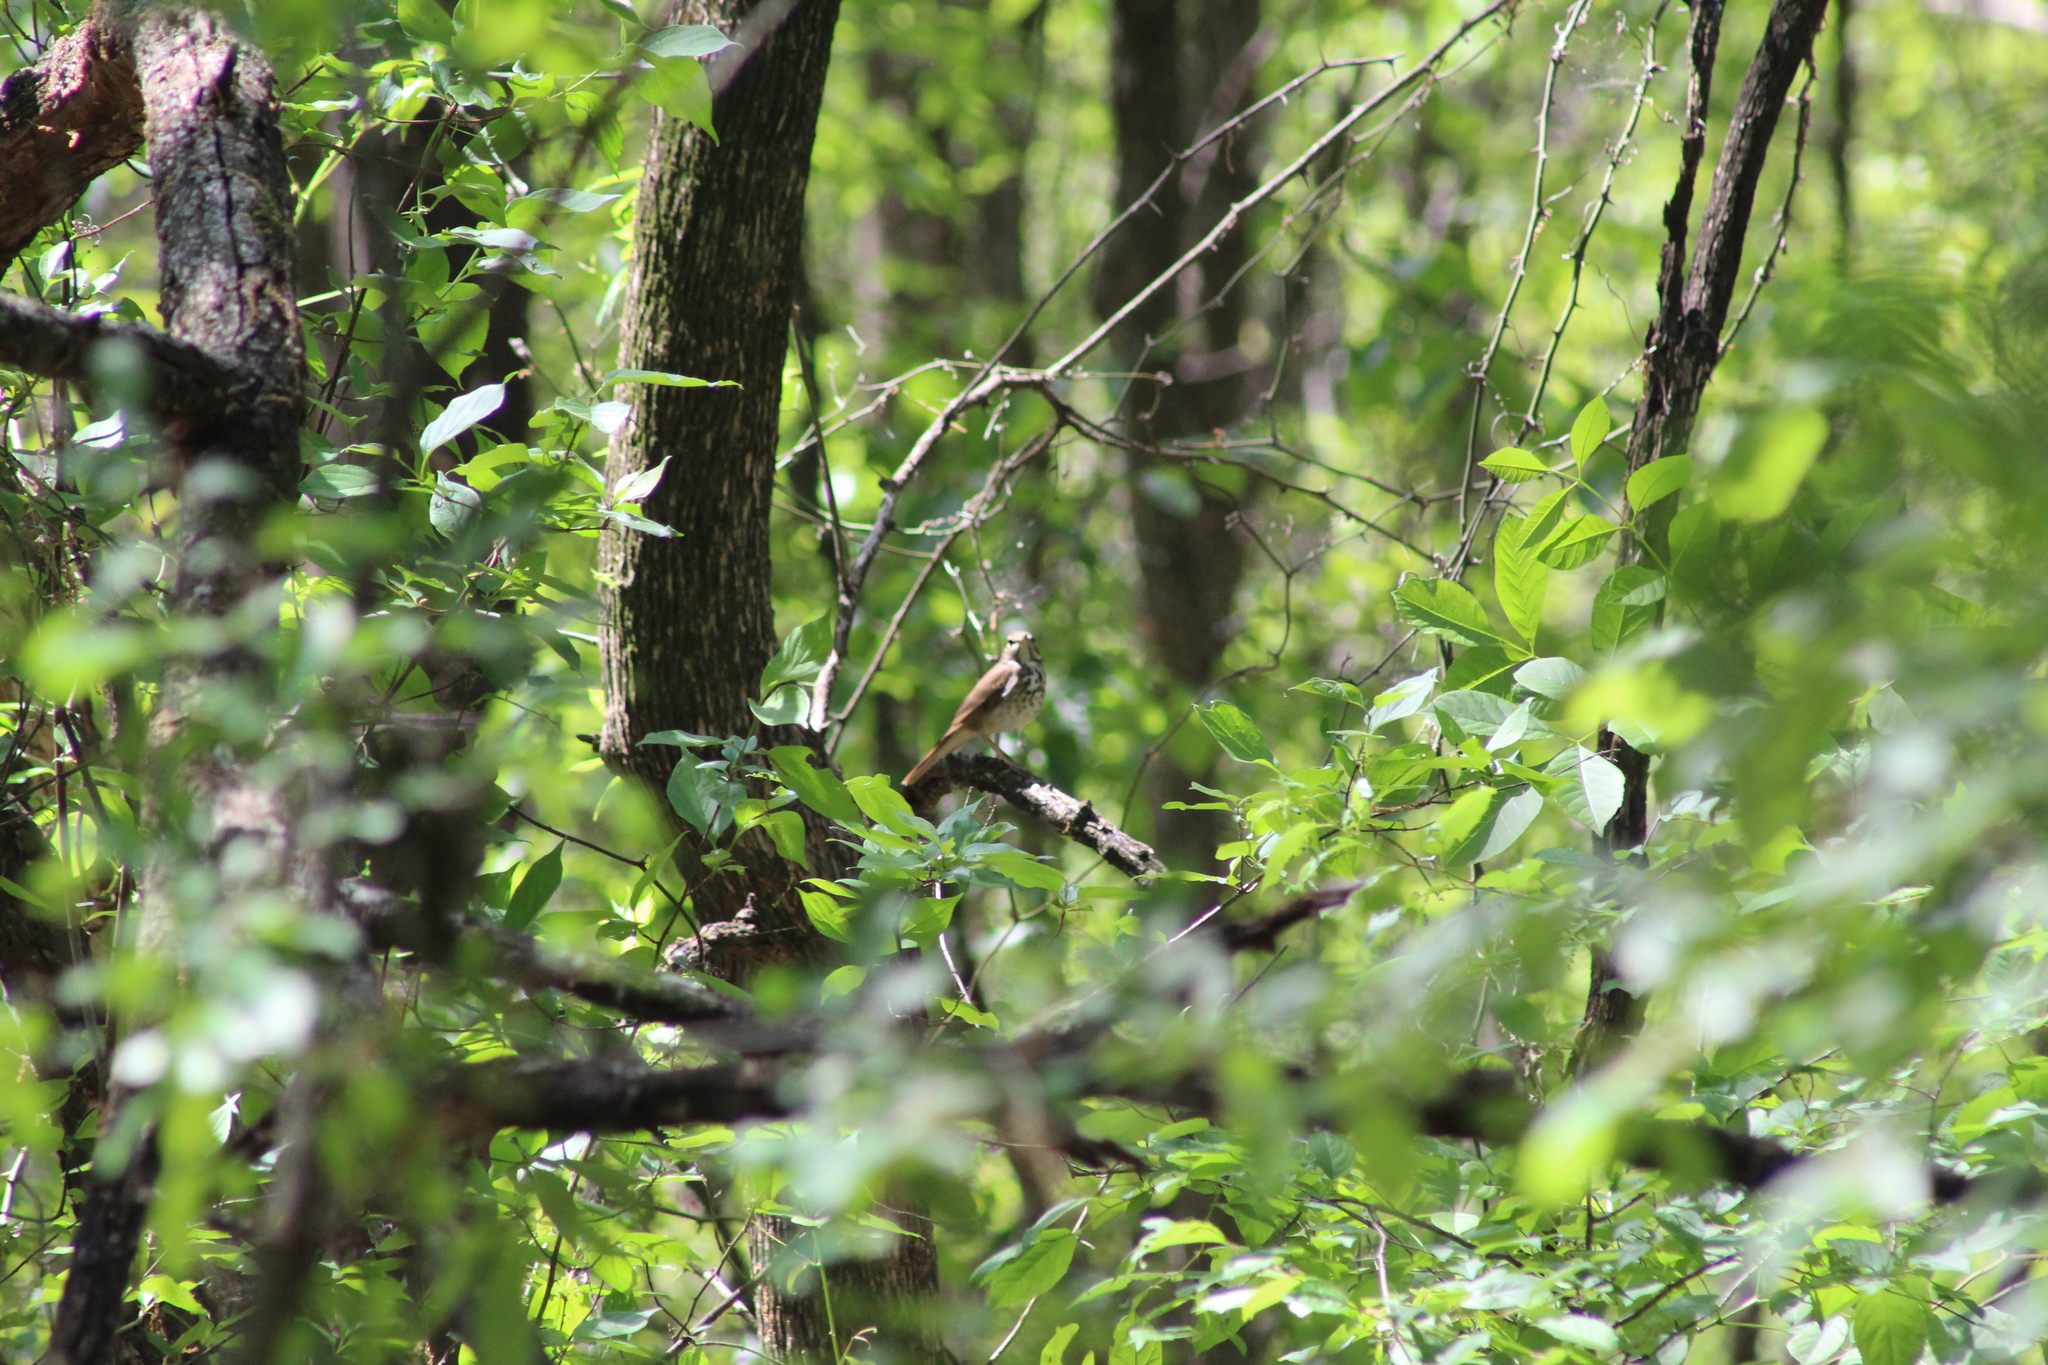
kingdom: Animalia
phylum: Chordata
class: Aves
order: Passeriformes
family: Turdidae
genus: Catharus
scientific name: Catharus guttatus
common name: Hermit thrush
